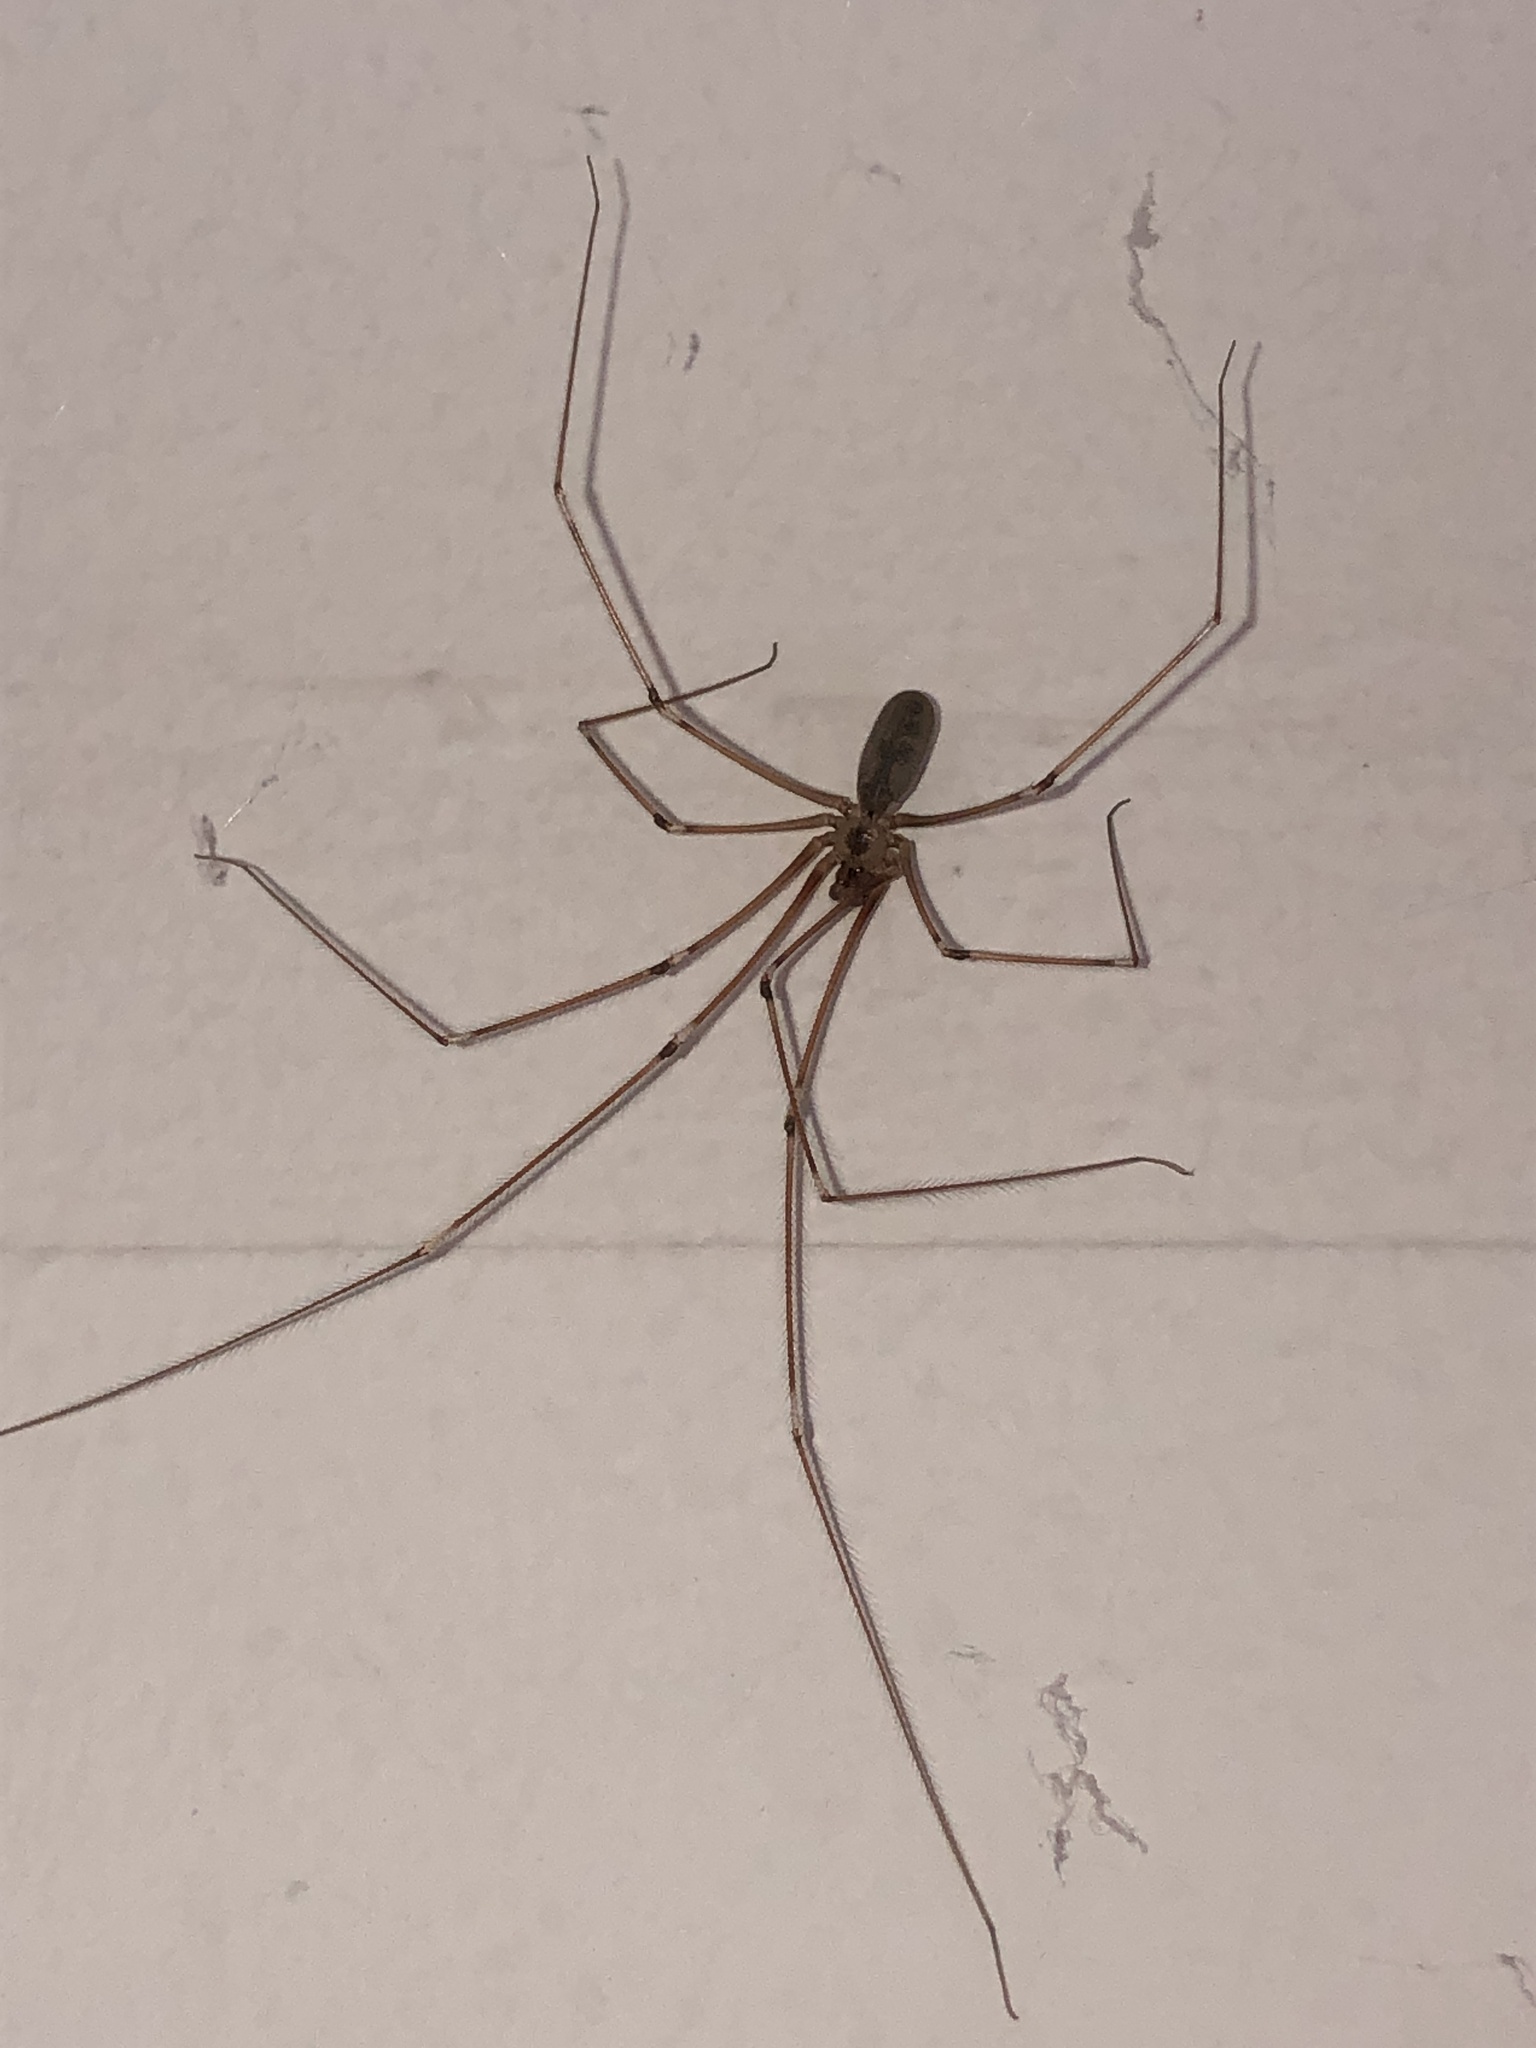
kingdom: Animalia
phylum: Arthropoda
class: Arachnida
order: Araneae
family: Pholcidae
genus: Pholcus
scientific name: Pholcus phalangioides
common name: Longbodied cellar spider
